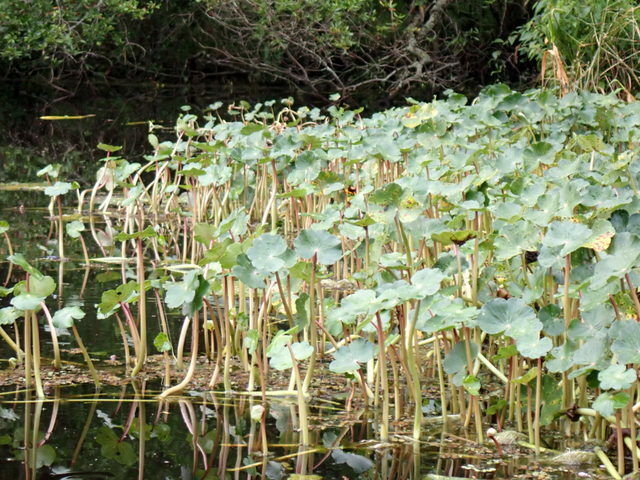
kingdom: Plantae
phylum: Tracheophyta
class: Magnoliopsida
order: Apiales
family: Araliaceae
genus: Hydrocotyle
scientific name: Hydrocotyle ranunculoides
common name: Floating pennywort
